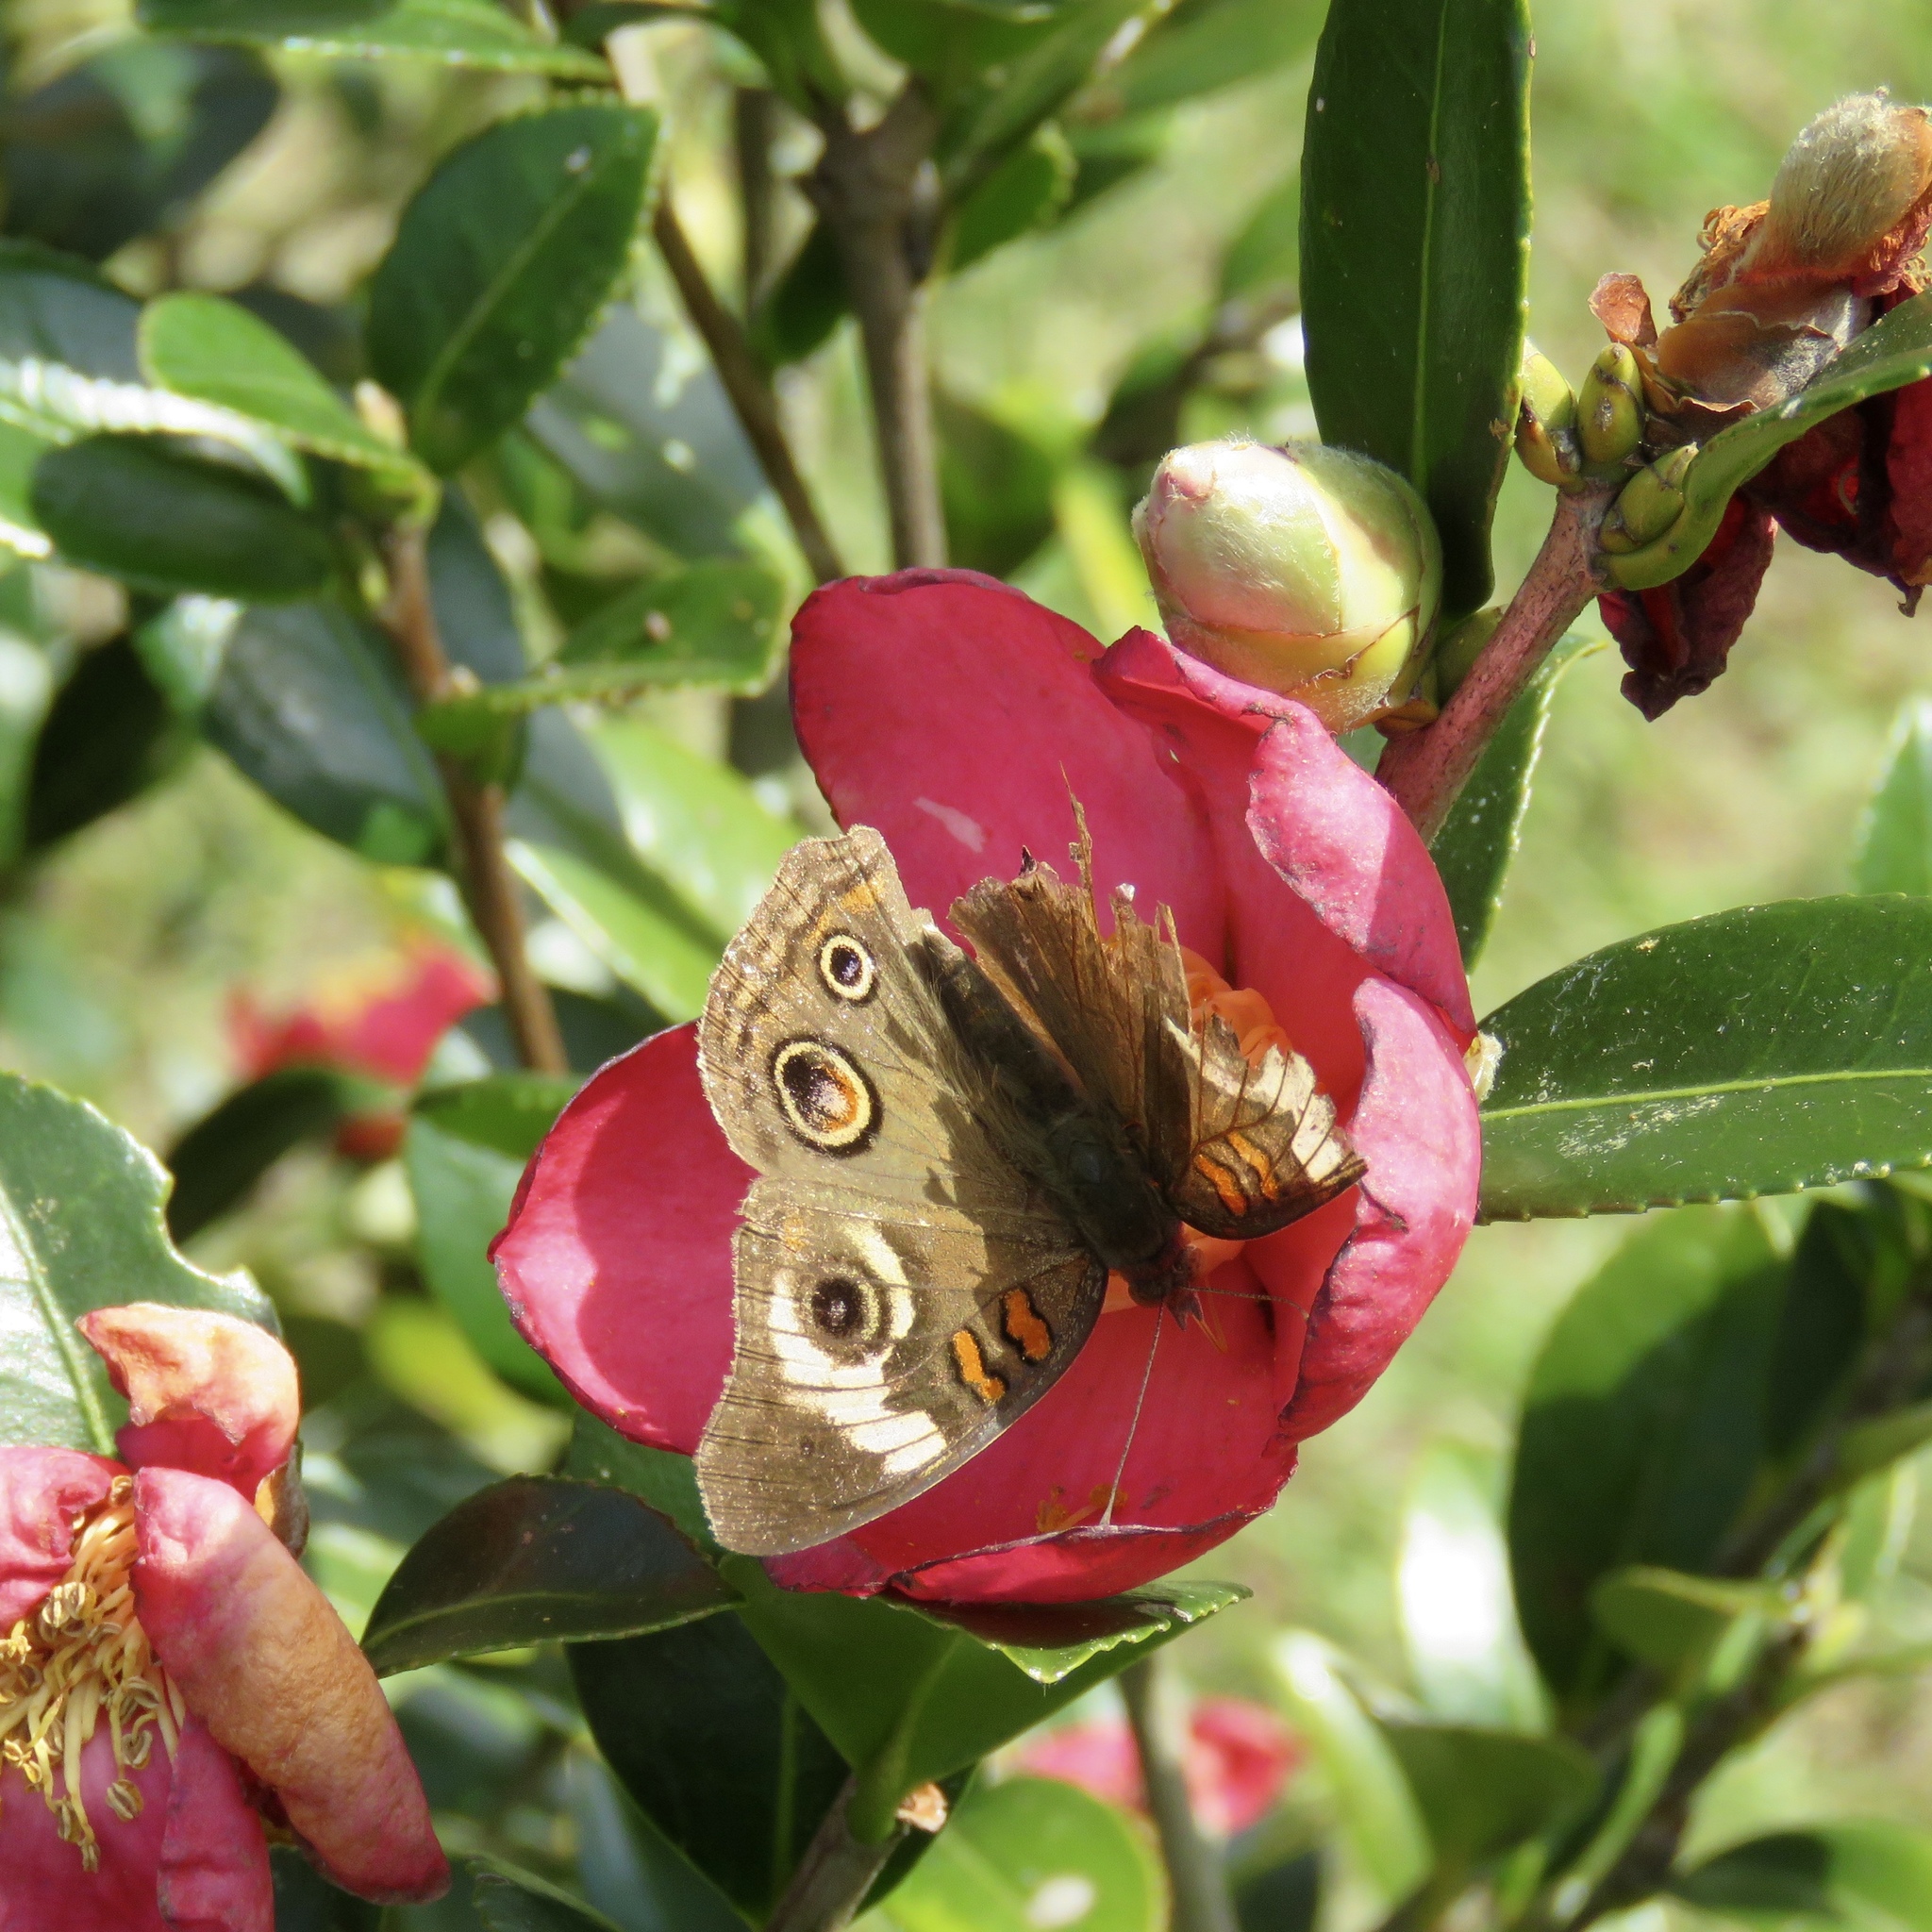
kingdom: Animalia
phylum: Arthropoda
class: Insecta
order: Lepidoptera
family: Nymphalidae
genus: Junonia
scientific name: Junonia coenia
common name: Common buckeye
